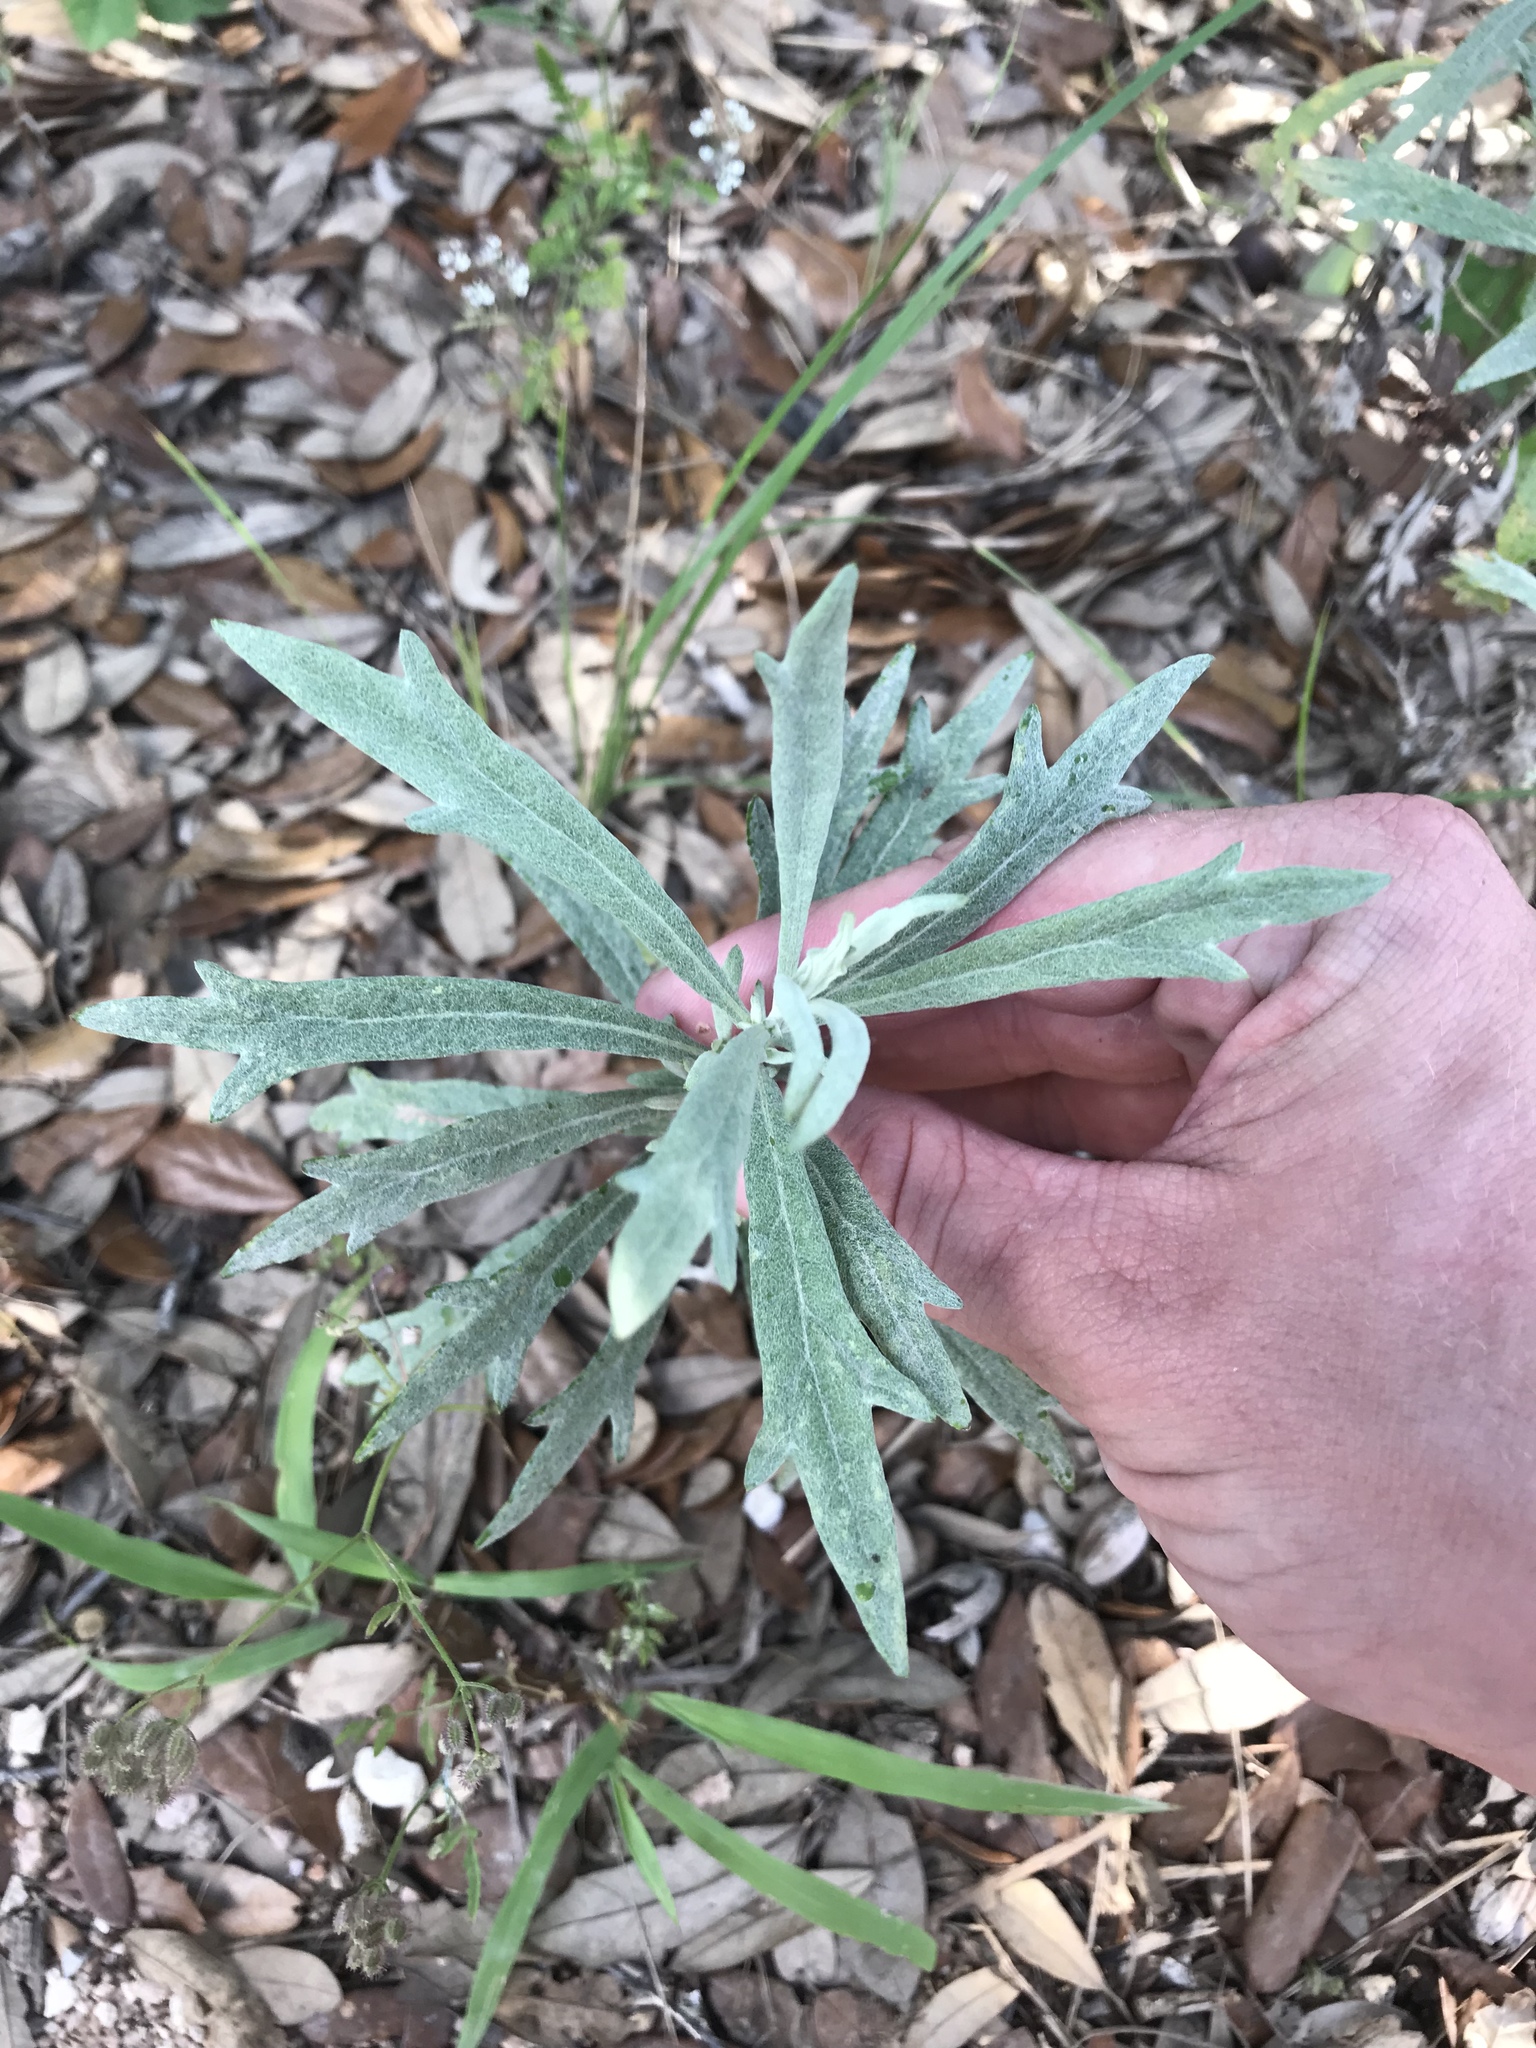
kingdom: Plantae
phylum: Tracheophyta
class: Magnoliopsida
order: Asterales
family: Asteraceae
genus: Artemisia
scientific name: Artemisia ludoviciana
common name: Western mugwort
